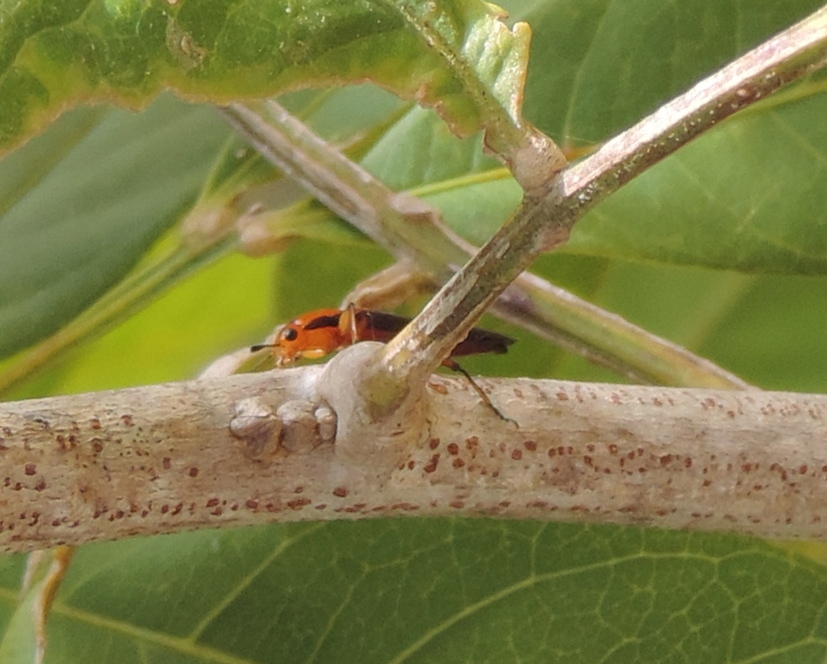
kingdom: Animalia
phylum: Arthropoda
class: Insecta
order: Coleoptera
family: Erotylidae
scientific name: Erotylidae
